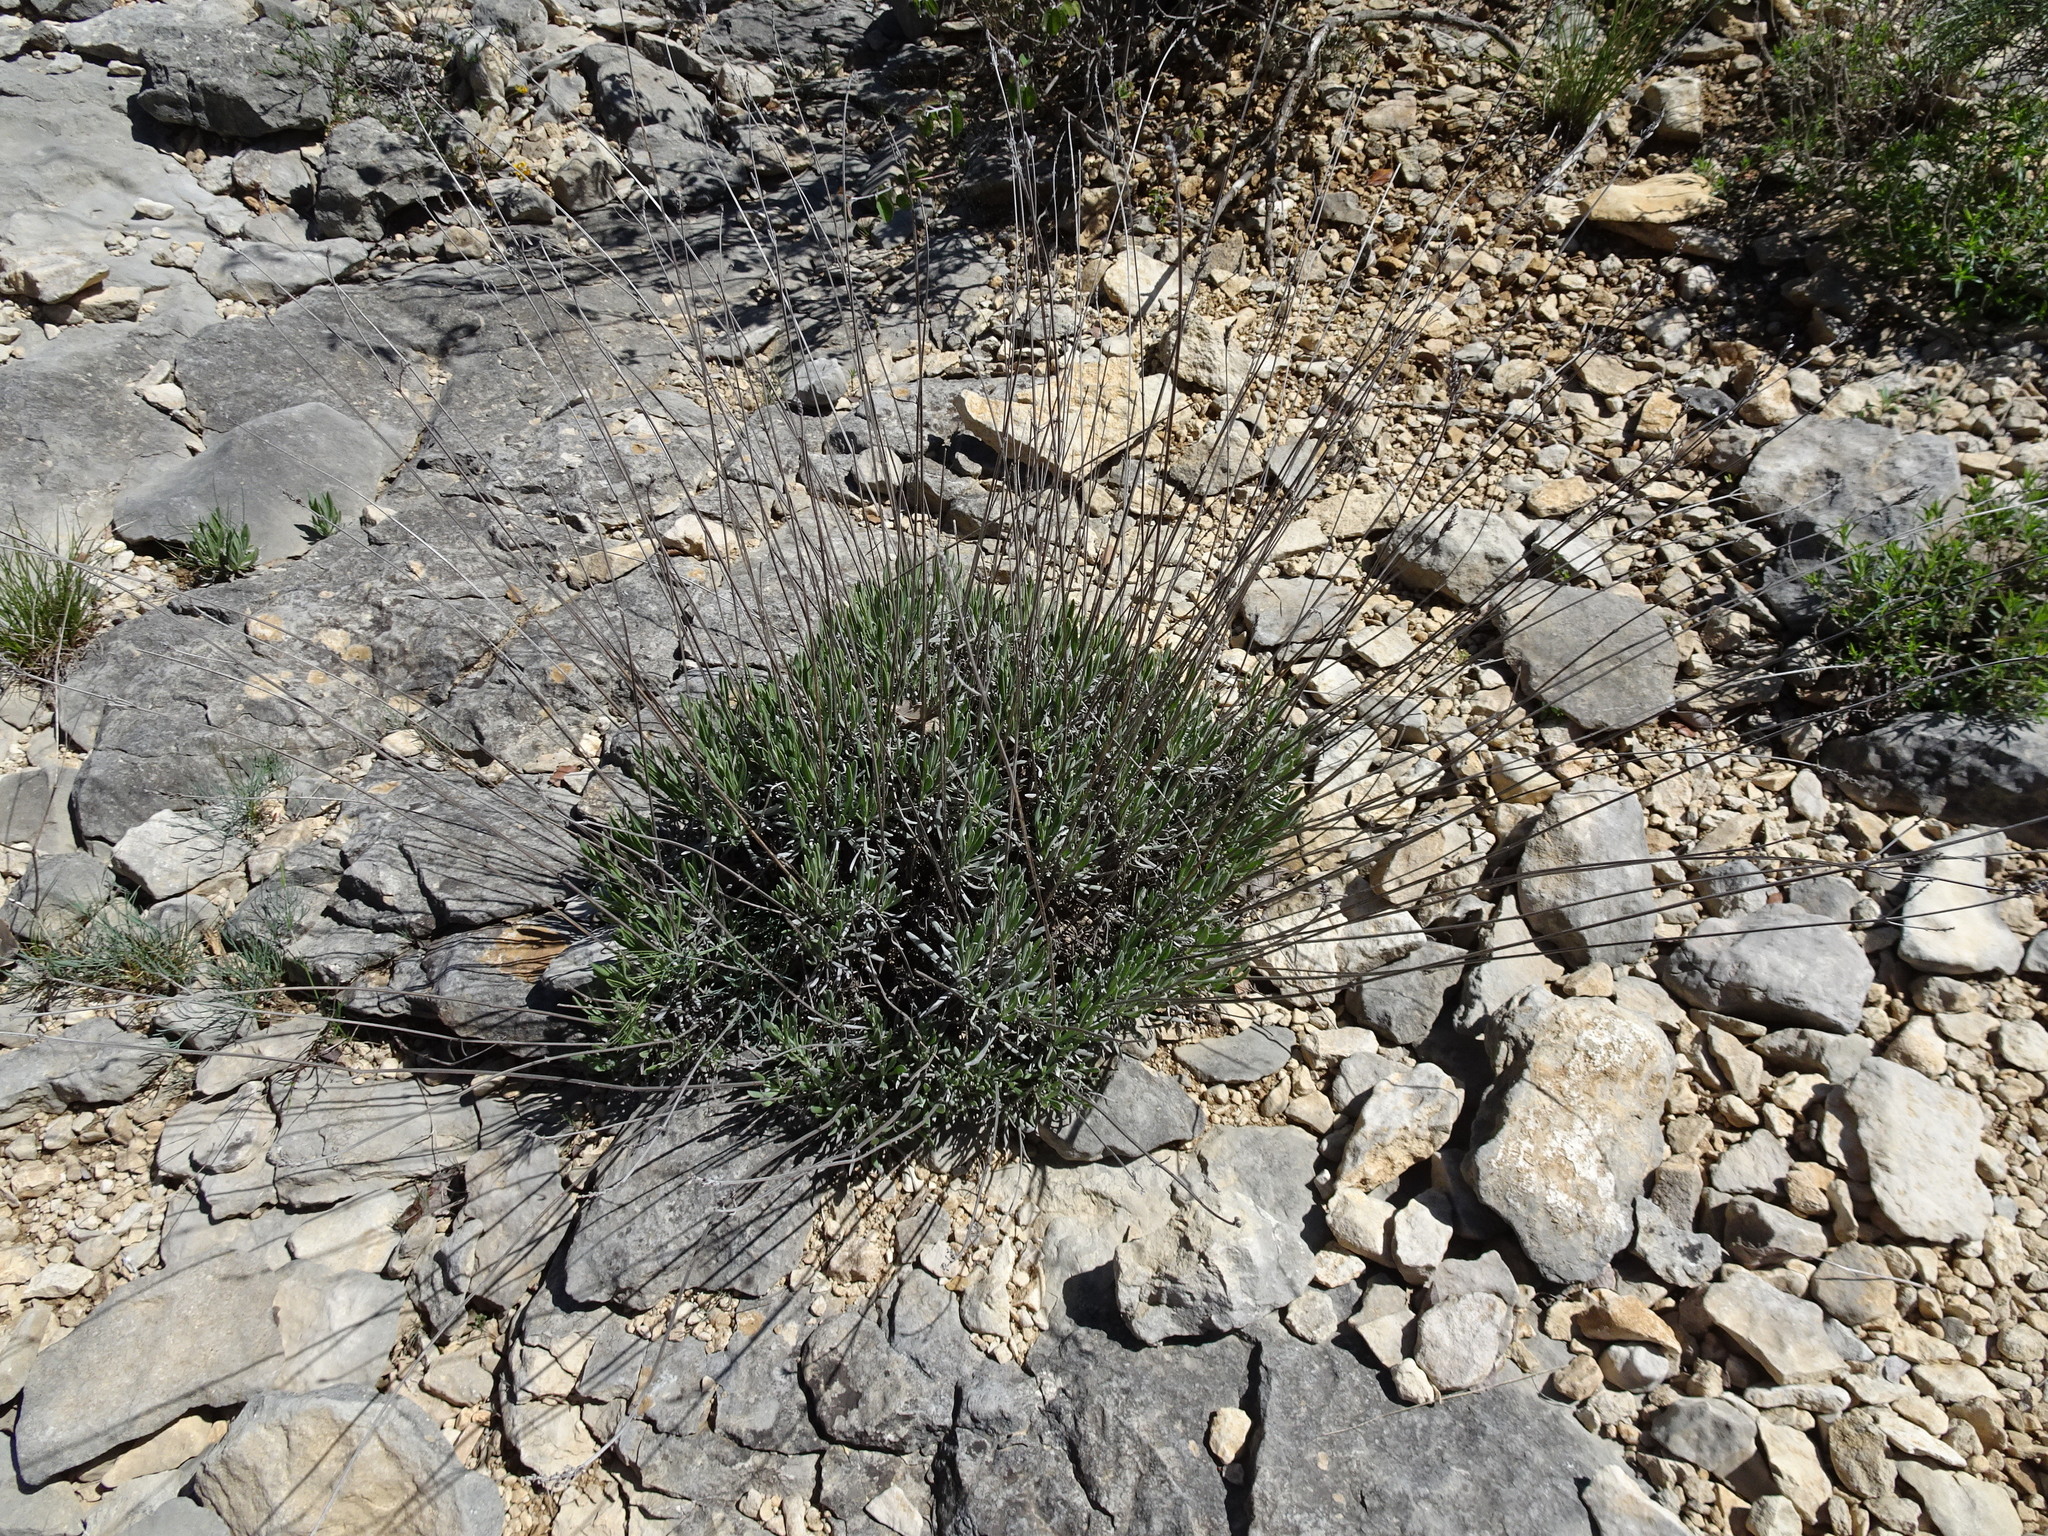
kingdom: Plantae
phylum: Tracheophyta
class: Magnoliopsida
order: Lamiales
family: Lamiaceae
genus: Lavandula
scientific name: Lavandula latifolia
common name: Spike lavendar
